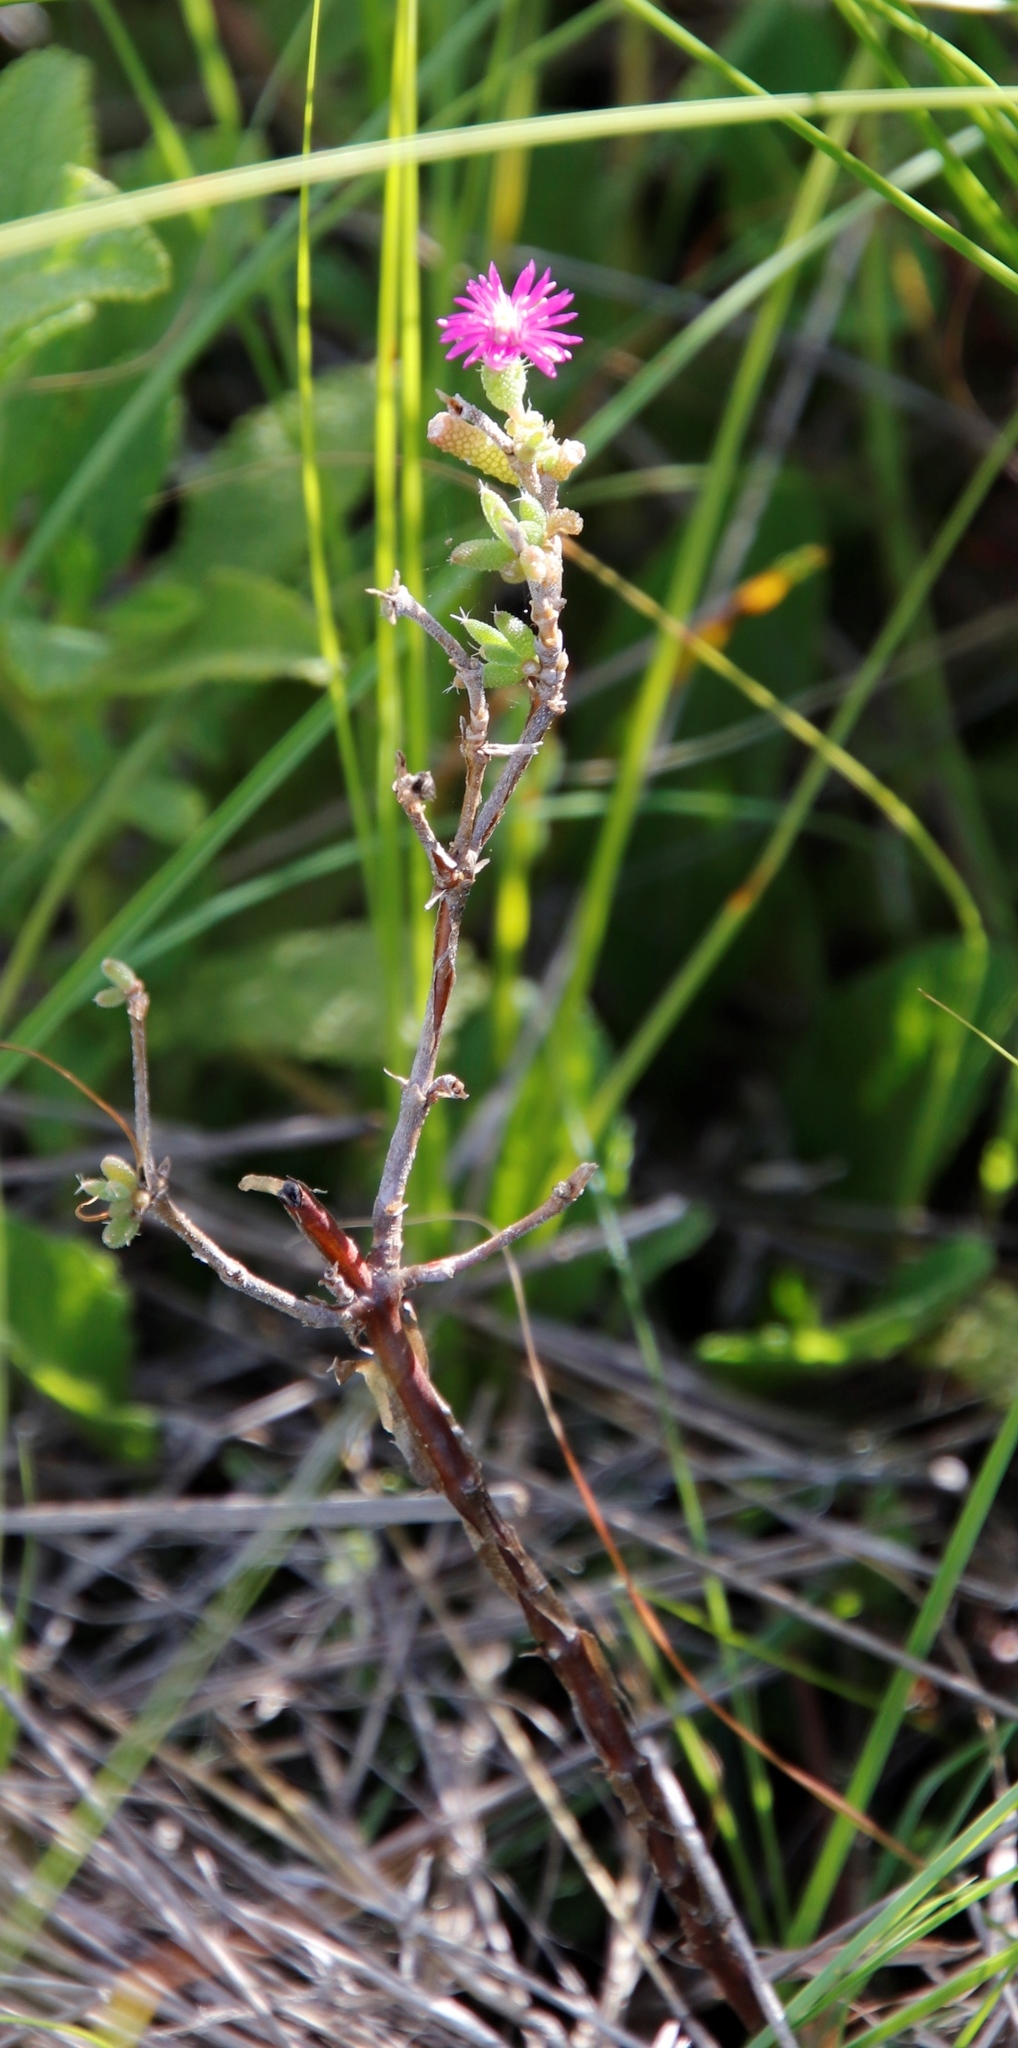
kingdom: Plantae
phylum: Tracheophyta
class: Magnoliopsida
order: Caryophyllales
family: Aizoaceae
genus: Trichodiadema
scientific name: Trichodiadema pomeridianum
